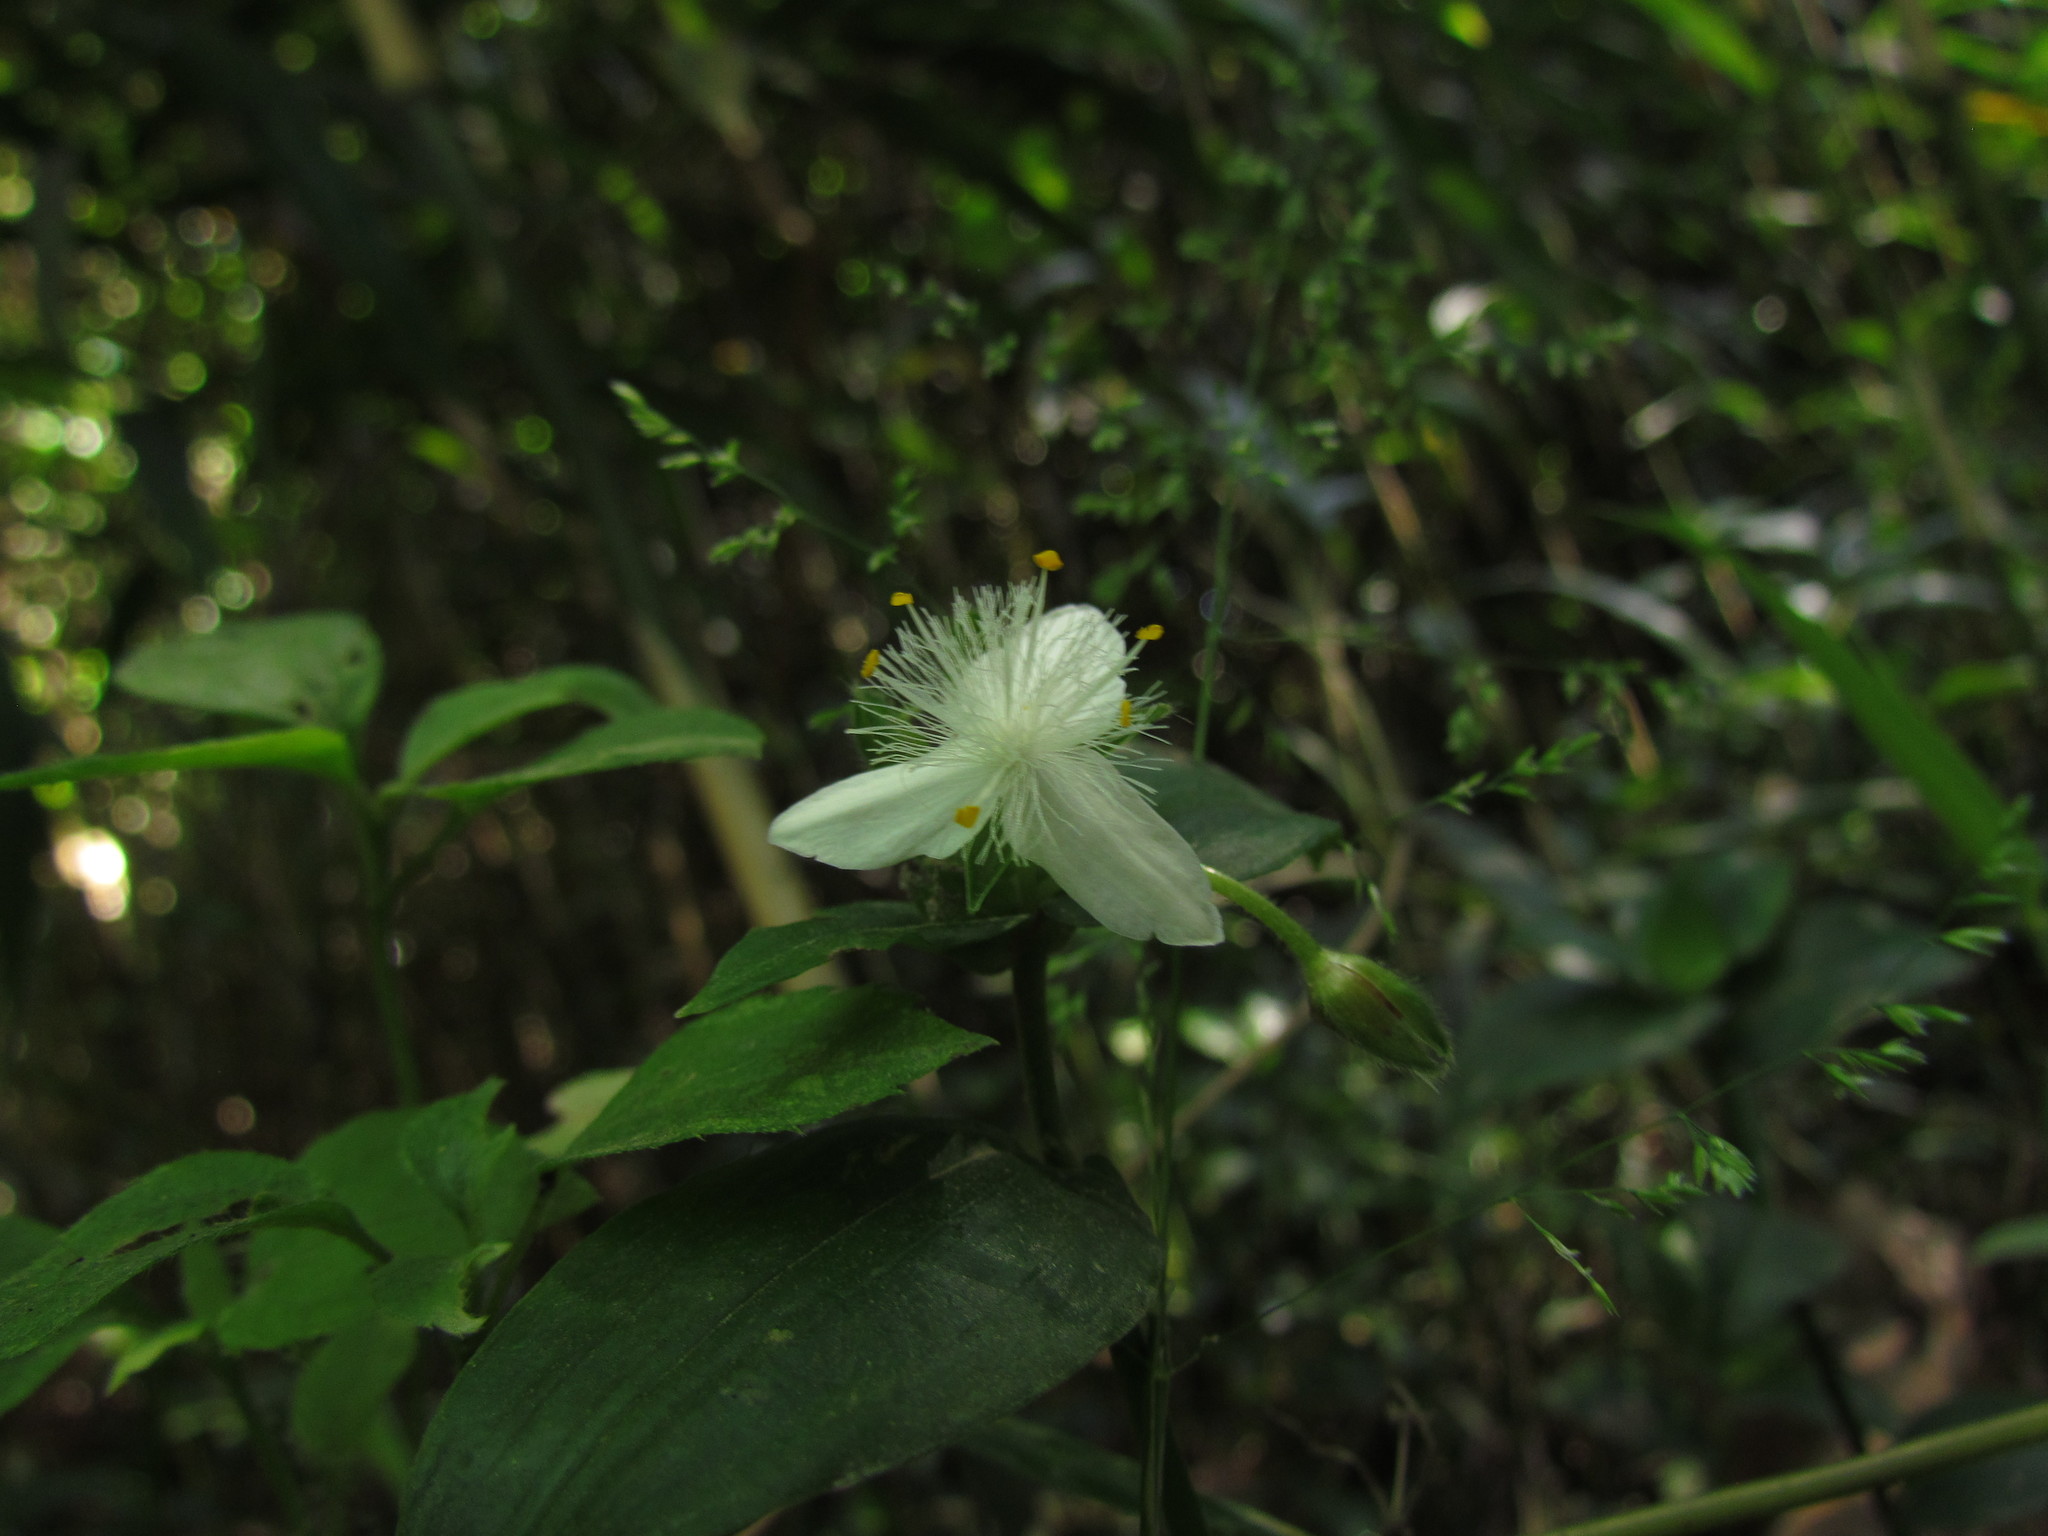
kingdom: Plantae
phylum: Tracheophyta
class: Liliopsida
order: Commelinales
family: Commelinaceae
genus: Tradescantia
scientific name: Tradescantia fluminensis
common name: Wandering-jew
